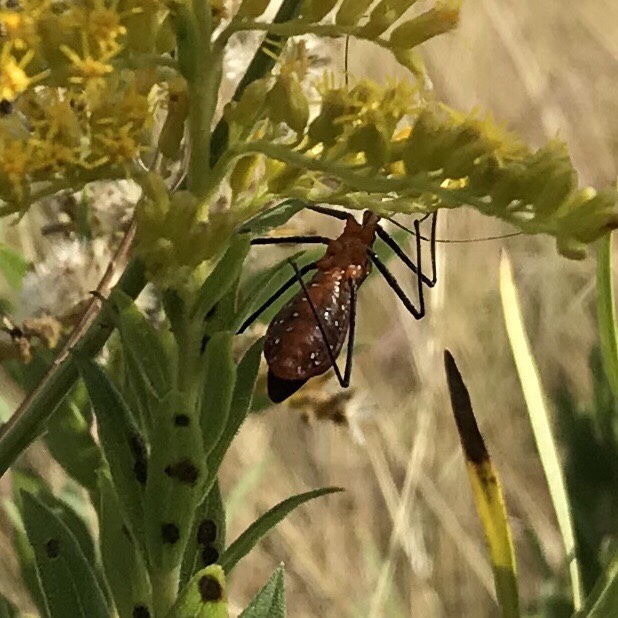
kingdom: Animalia
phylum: Arthropoda
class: Insecta
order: Hemiptera
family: Reduviidae
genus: Zelus
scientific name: Zelus longipes
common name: Milkweed assassin bug
